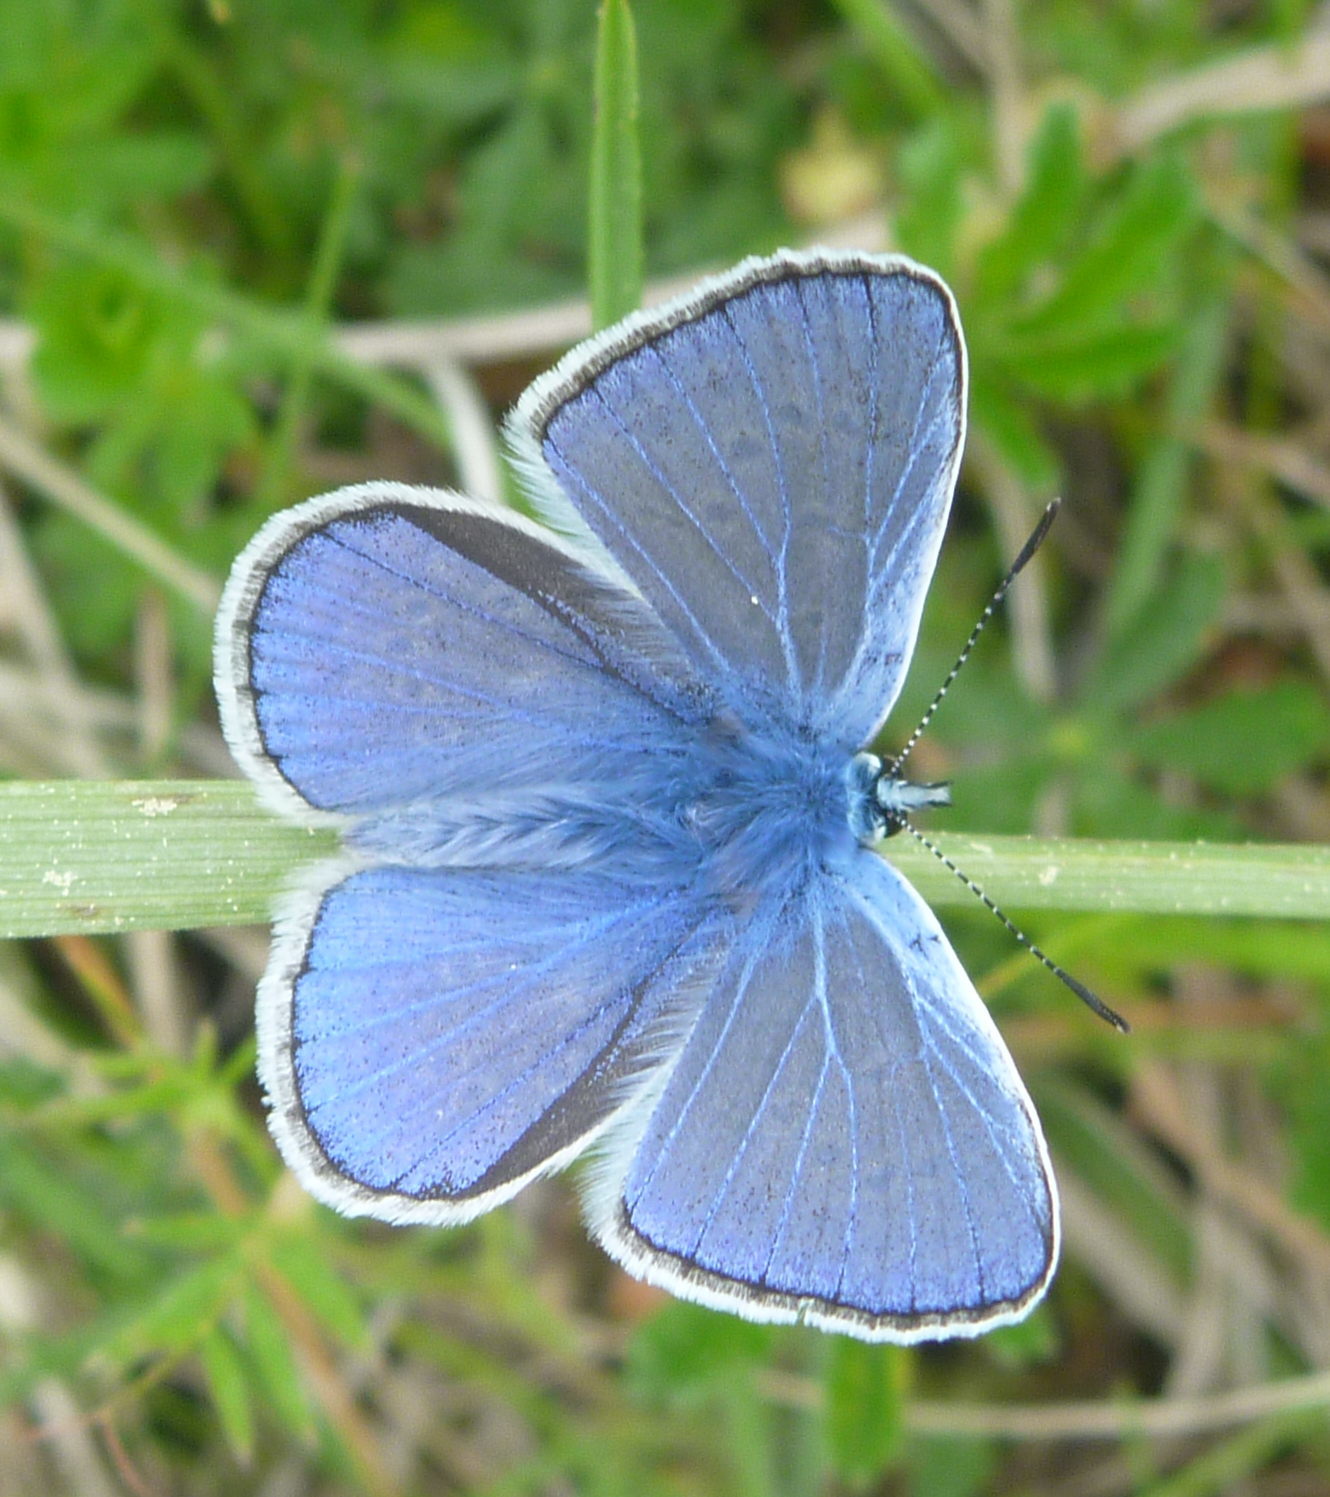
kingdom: Animalia
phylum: Arthropoda
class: Insecta
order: Lepidoptera
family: Lycaenidae
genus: Polyommatus
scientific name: Polyommatus icarus
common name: Common blue
